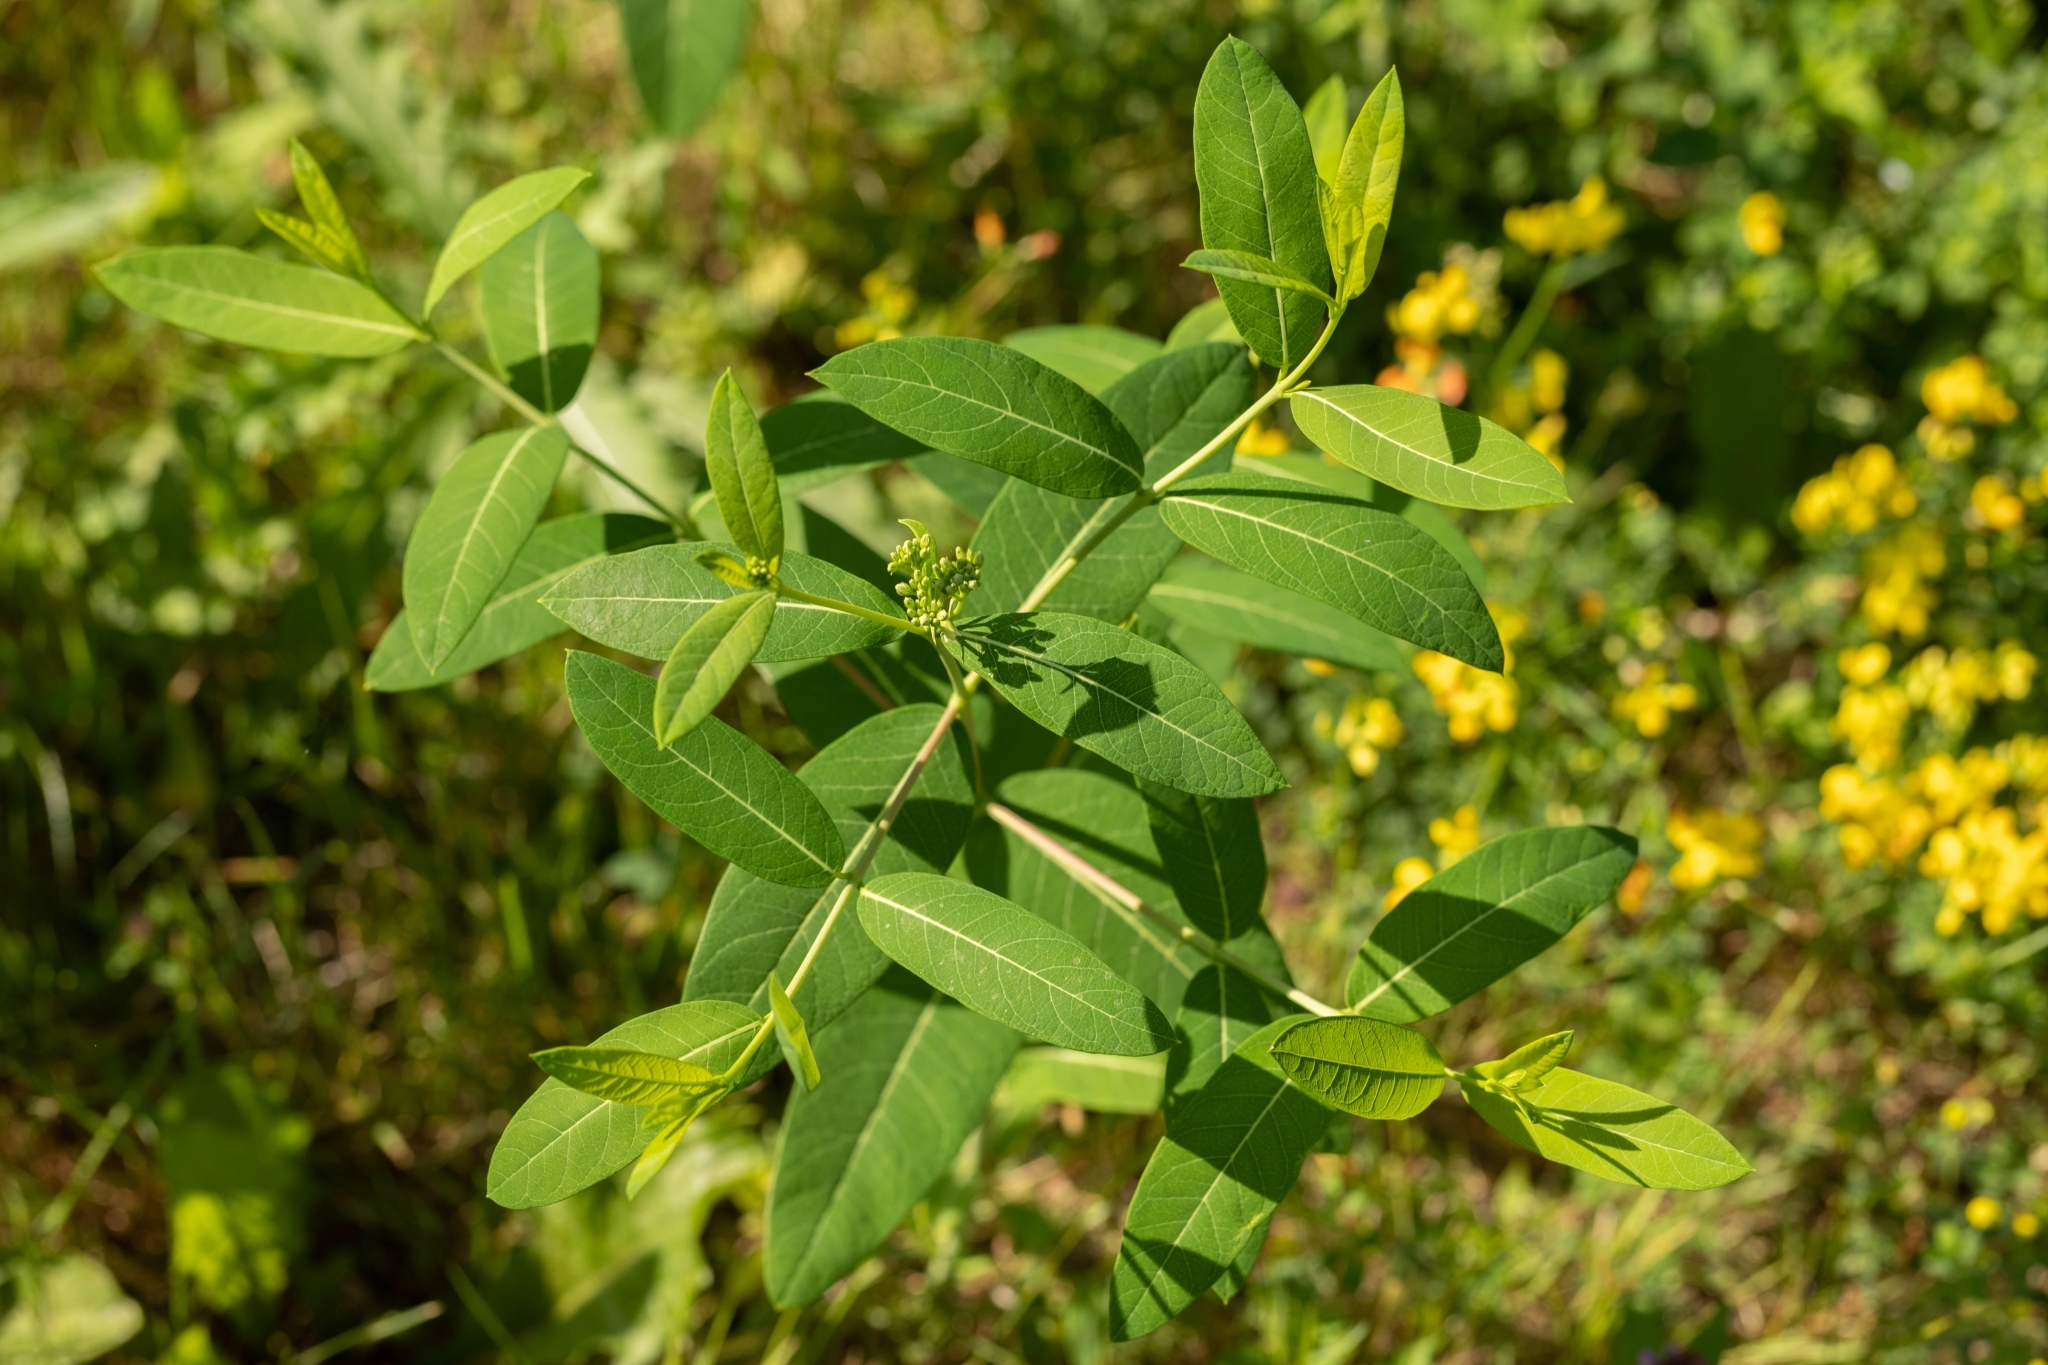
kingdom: Plantae
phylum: Tracheophyta
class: Magnoliopsida
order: Gentianales
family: Apocynaceae
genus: Apocynum
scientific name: Apocynum cannabinum
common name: Hemp dogbane
